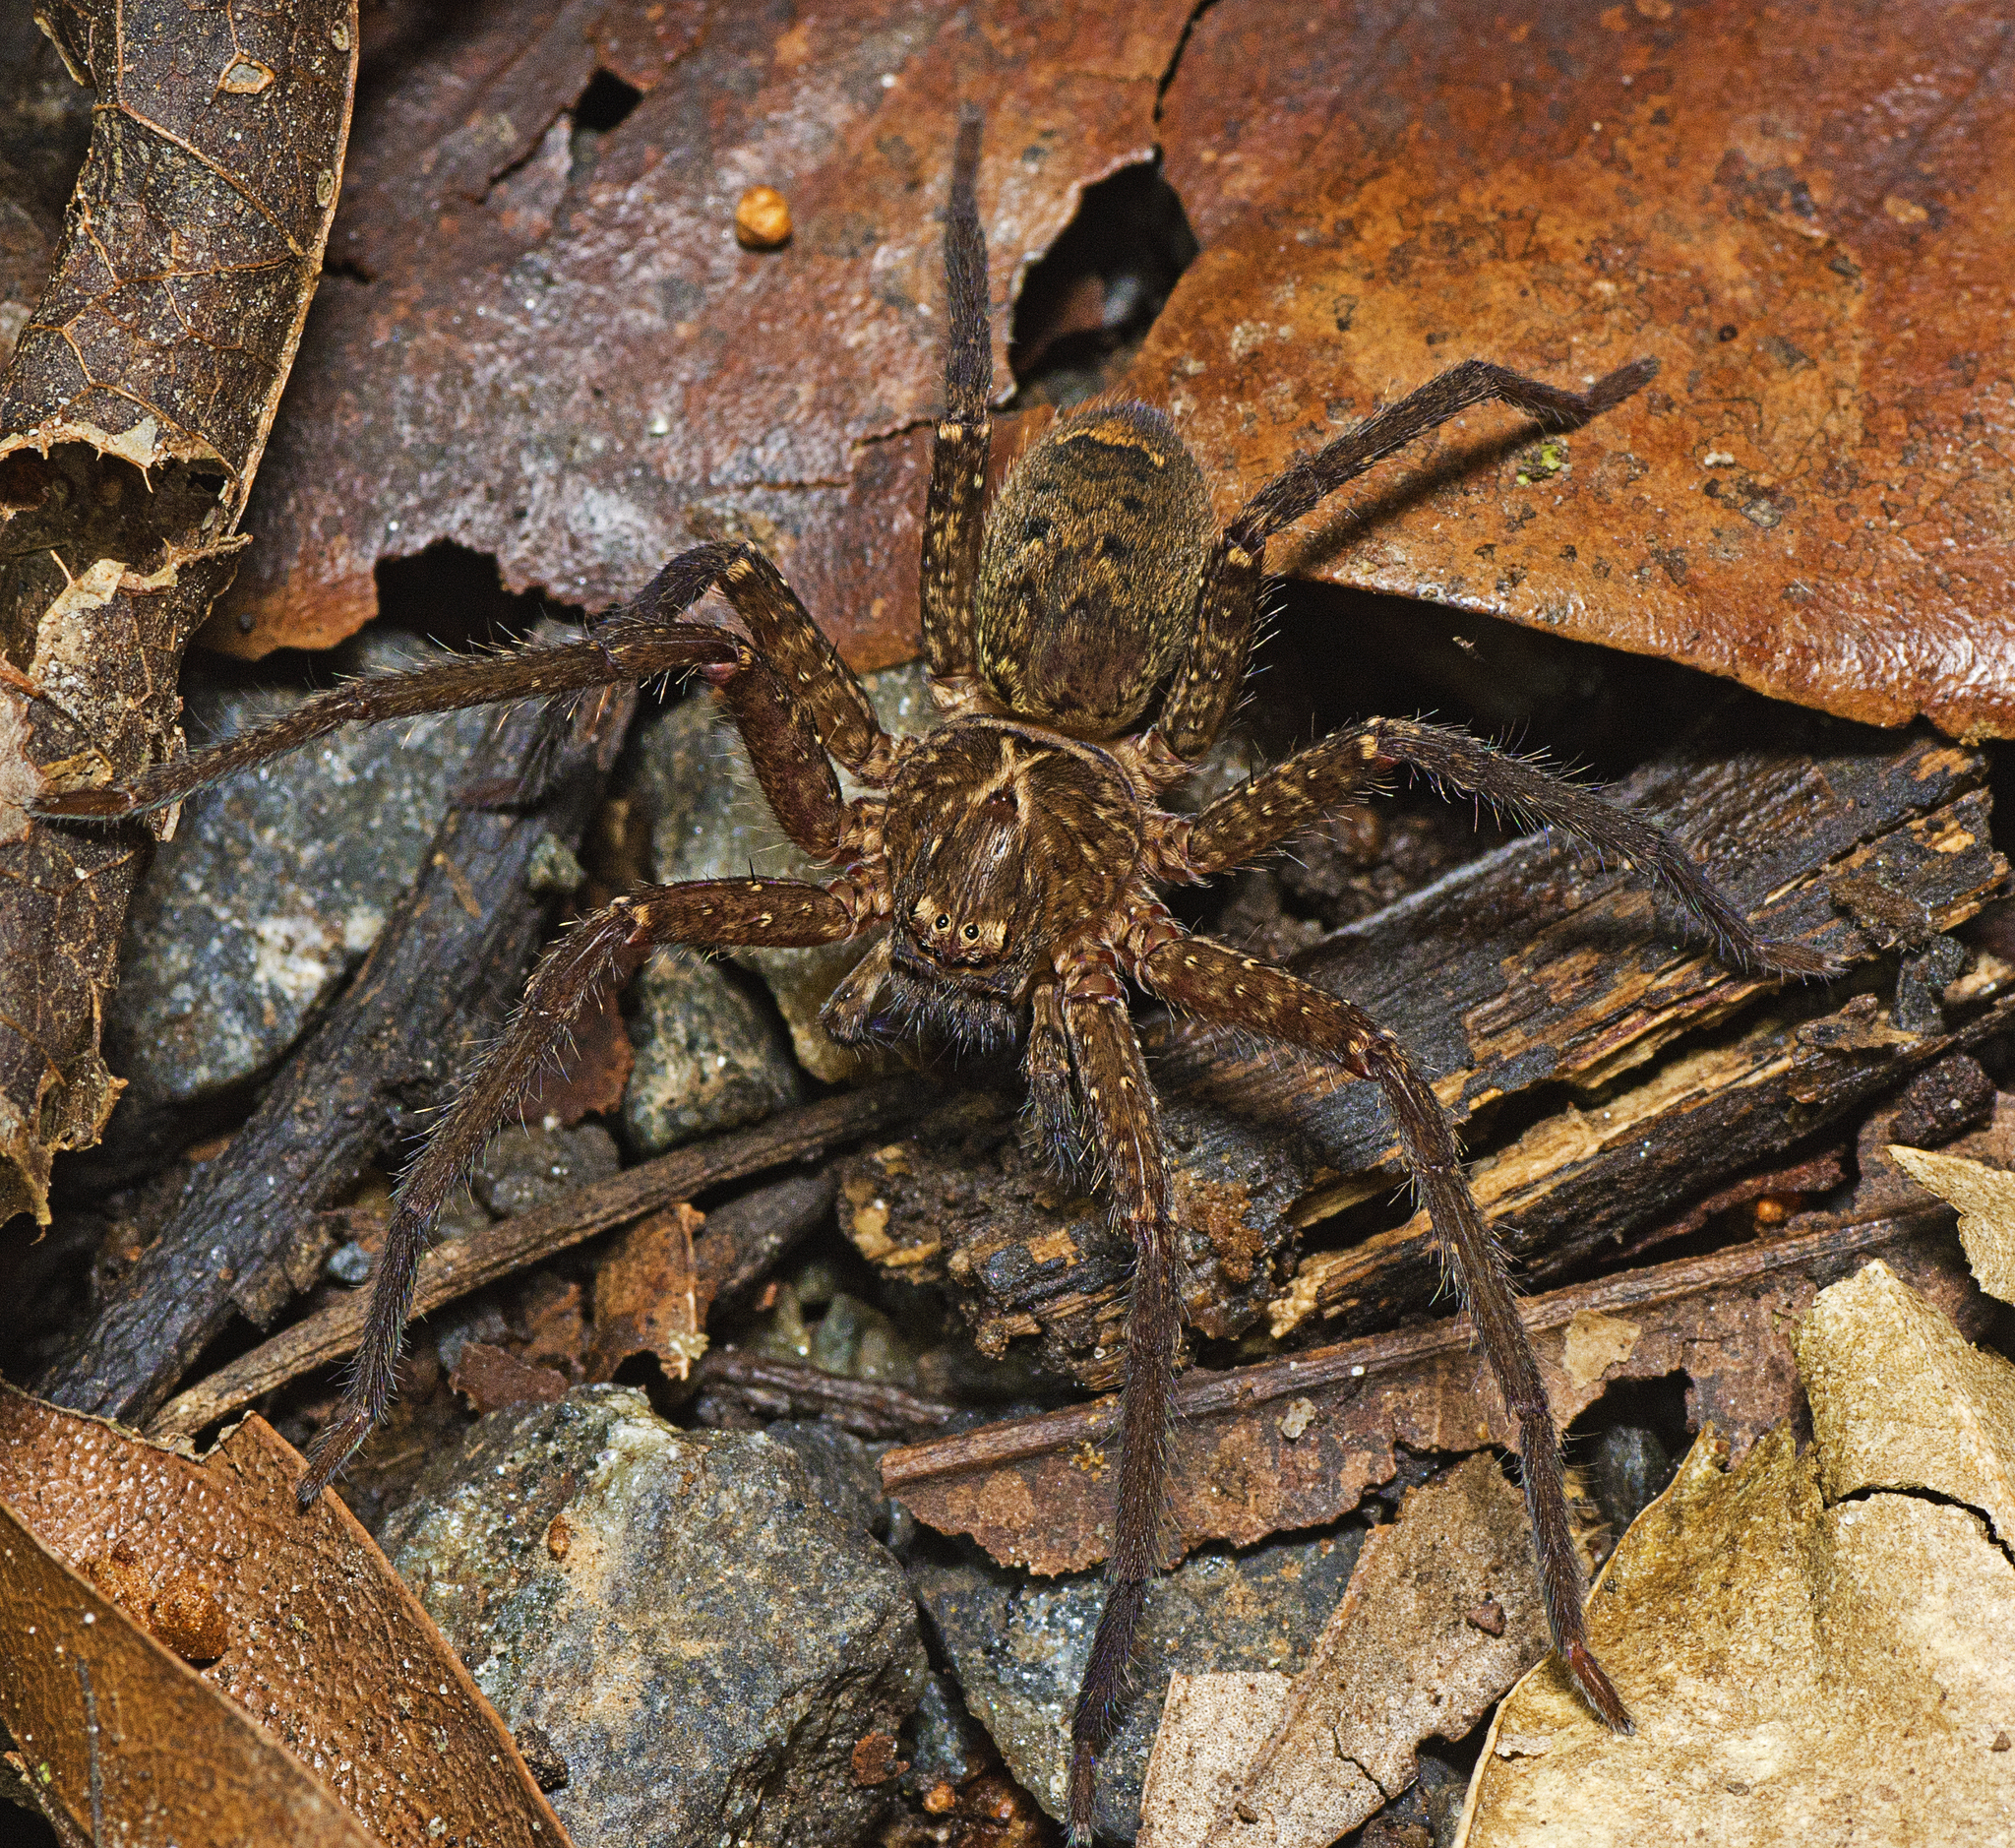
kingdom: Animalia
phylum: Arthropoda
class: Arachnida
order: Araneae
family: Sparassidae
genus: Heteropoda
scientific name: Heteropoda hillerae
